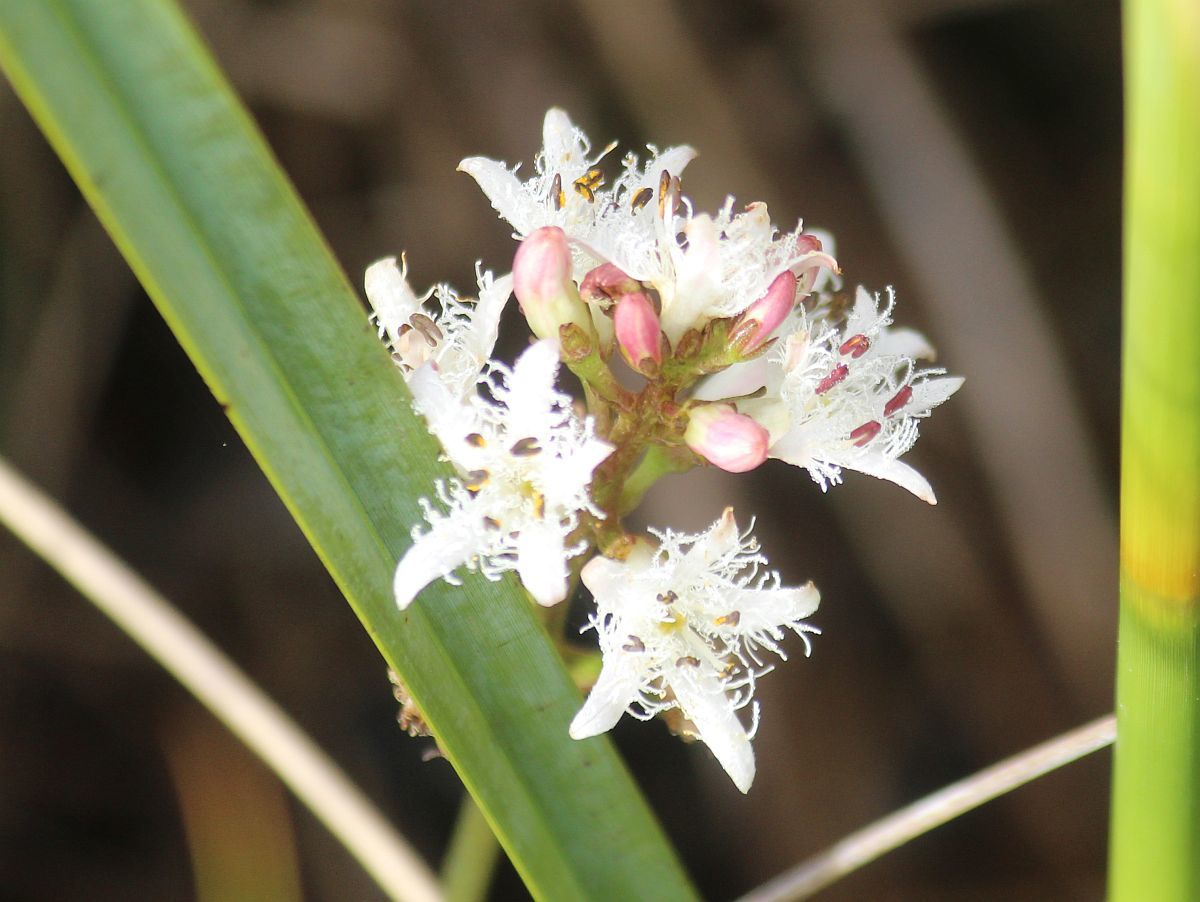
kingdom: Plantae
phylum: Tracheophyta
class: Magnoliopsida
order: Asterales
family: Menyanthaceae
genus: Menyanthes
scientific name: Menyanthes trifoliata
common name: Bogbean
